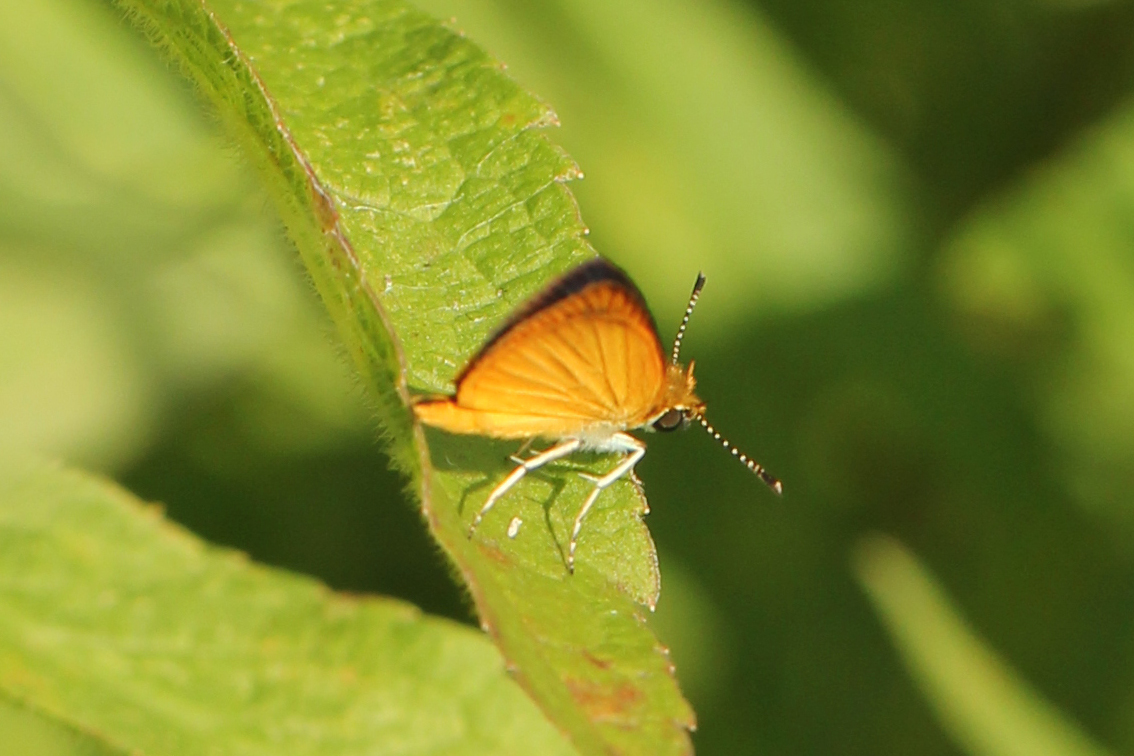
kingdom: Animalia
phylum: Arthropoda
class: Insecta
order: Lepidoptera
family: Hesperiidae
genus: Ancyloxypha
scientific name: Ancyloxypha numitor
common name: Least skipper
